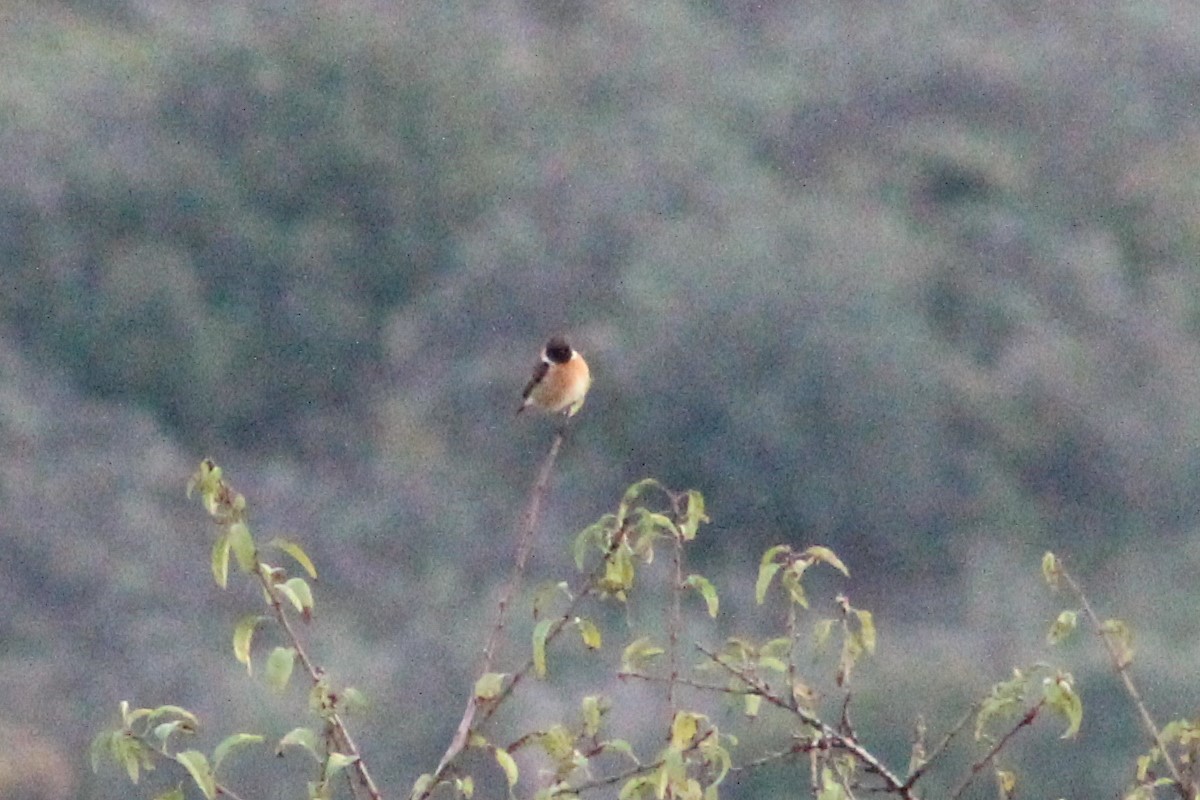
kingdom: Animalia
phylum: Chordata
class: Aves
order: Passeriformes
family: Muscicapidae
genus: Saxicola
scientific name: Saxicola rubicola
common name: European stonechat
